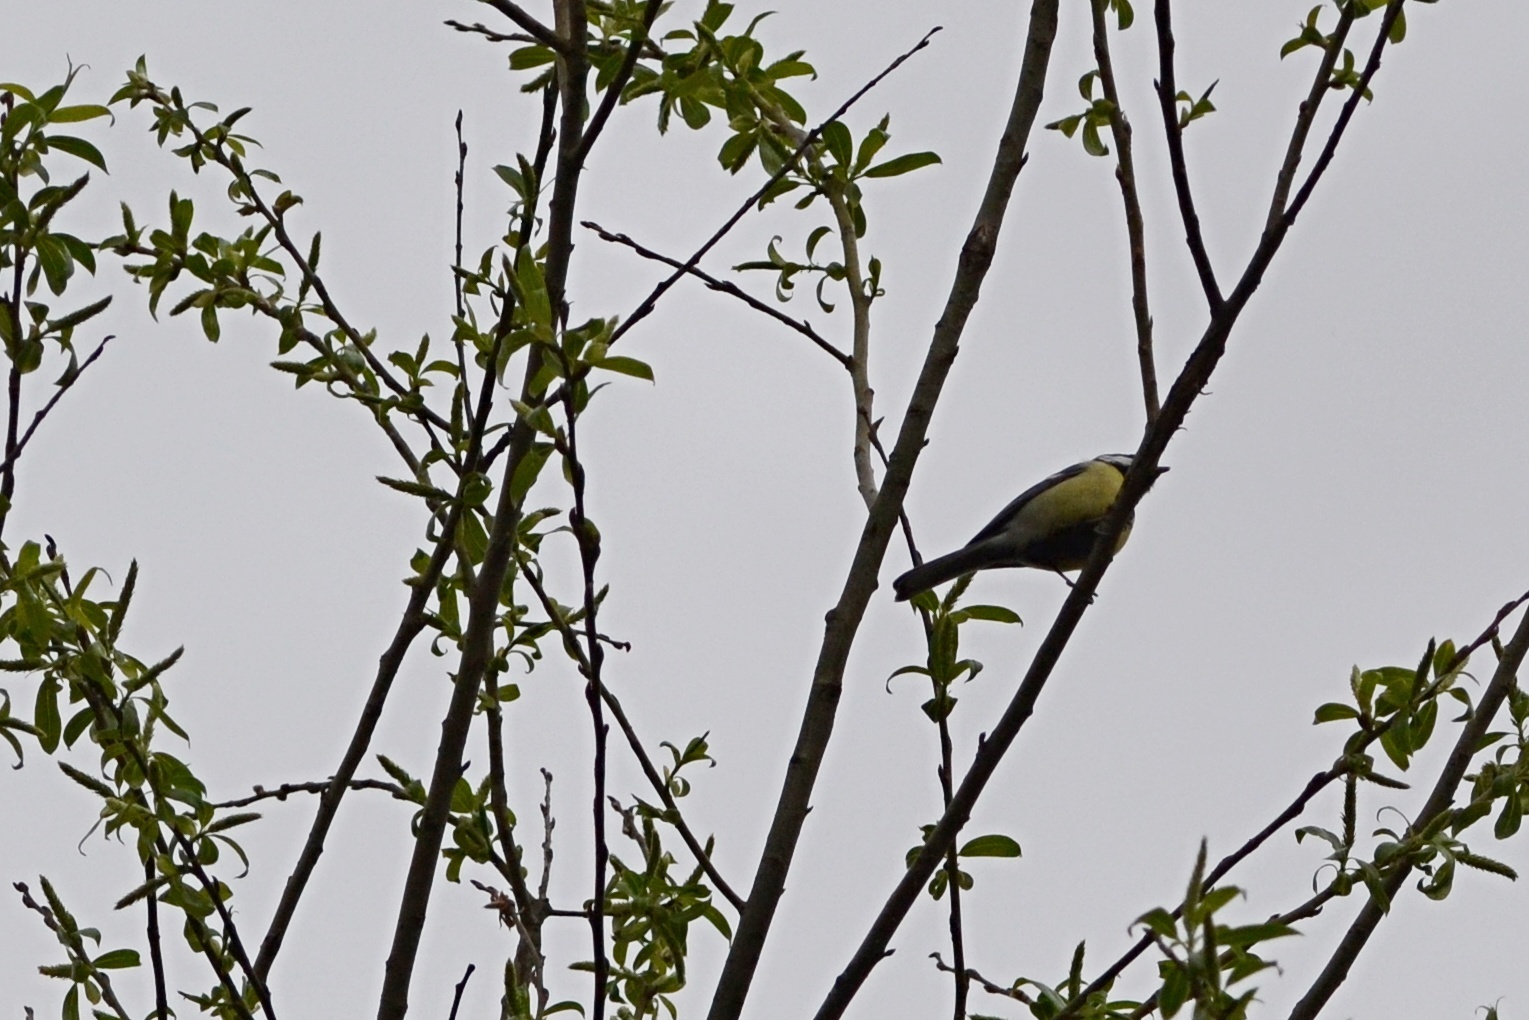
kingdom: Animalia
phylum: Chordata
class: Aves
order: Passeriformes
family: Paridae
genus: Parus
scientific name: Parus major
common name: Great tit
